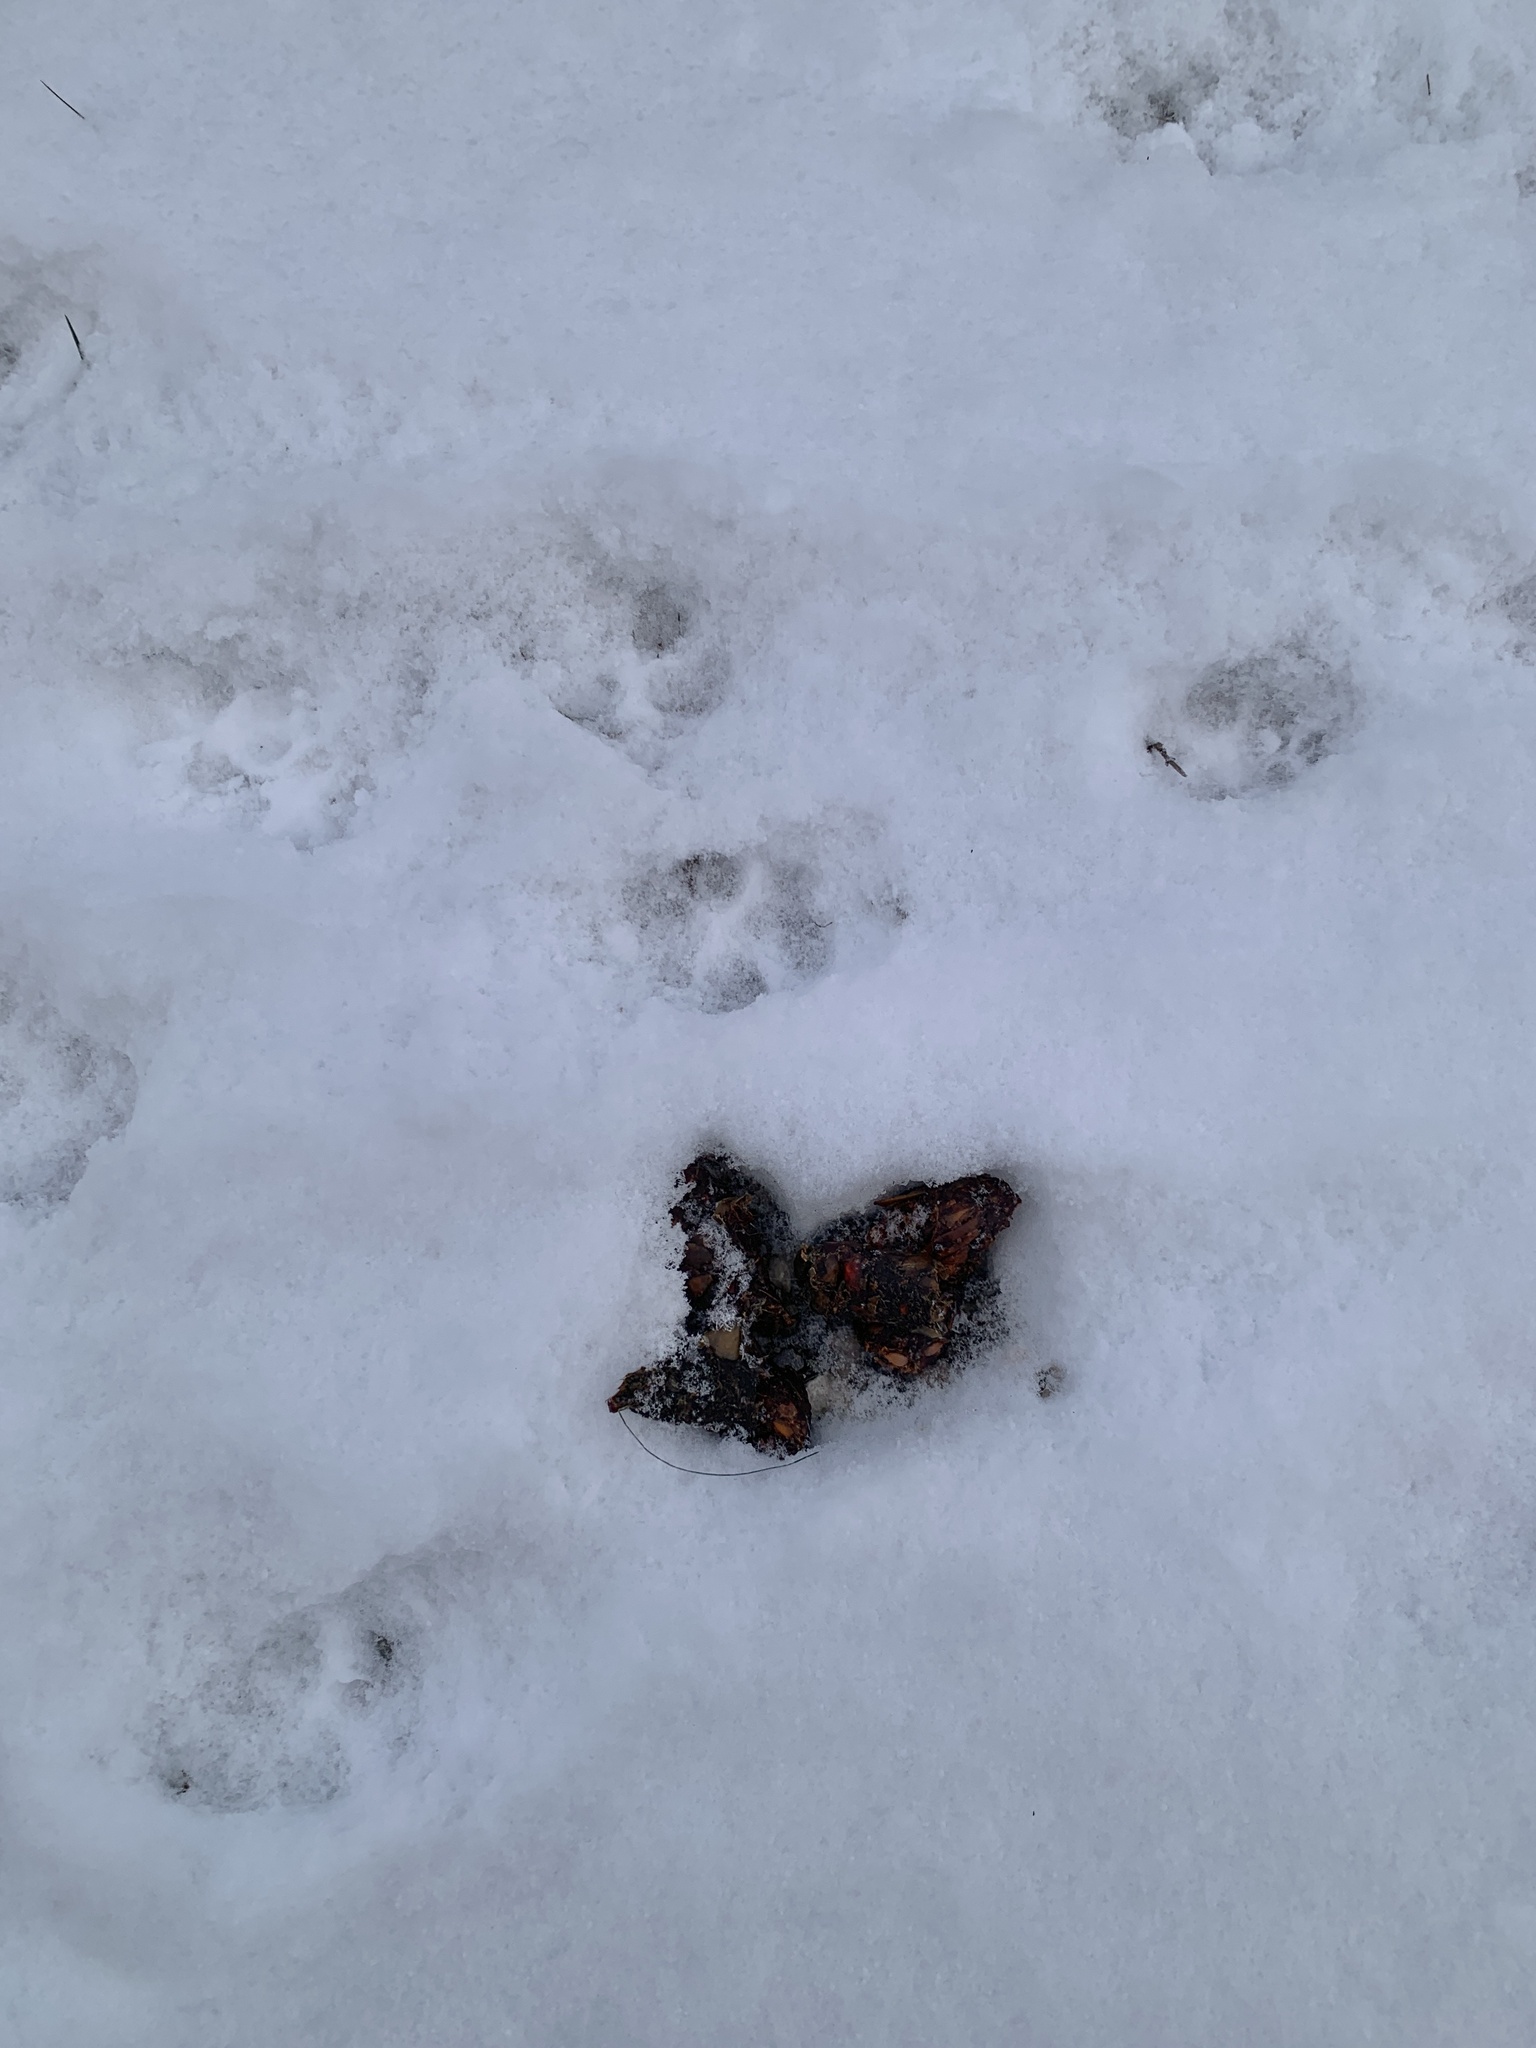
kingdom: Animalia
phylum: Chordata
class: Mammalia
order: Carnivora
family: Canidae
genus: Canis
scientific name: Canis latrans
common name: Coyote
